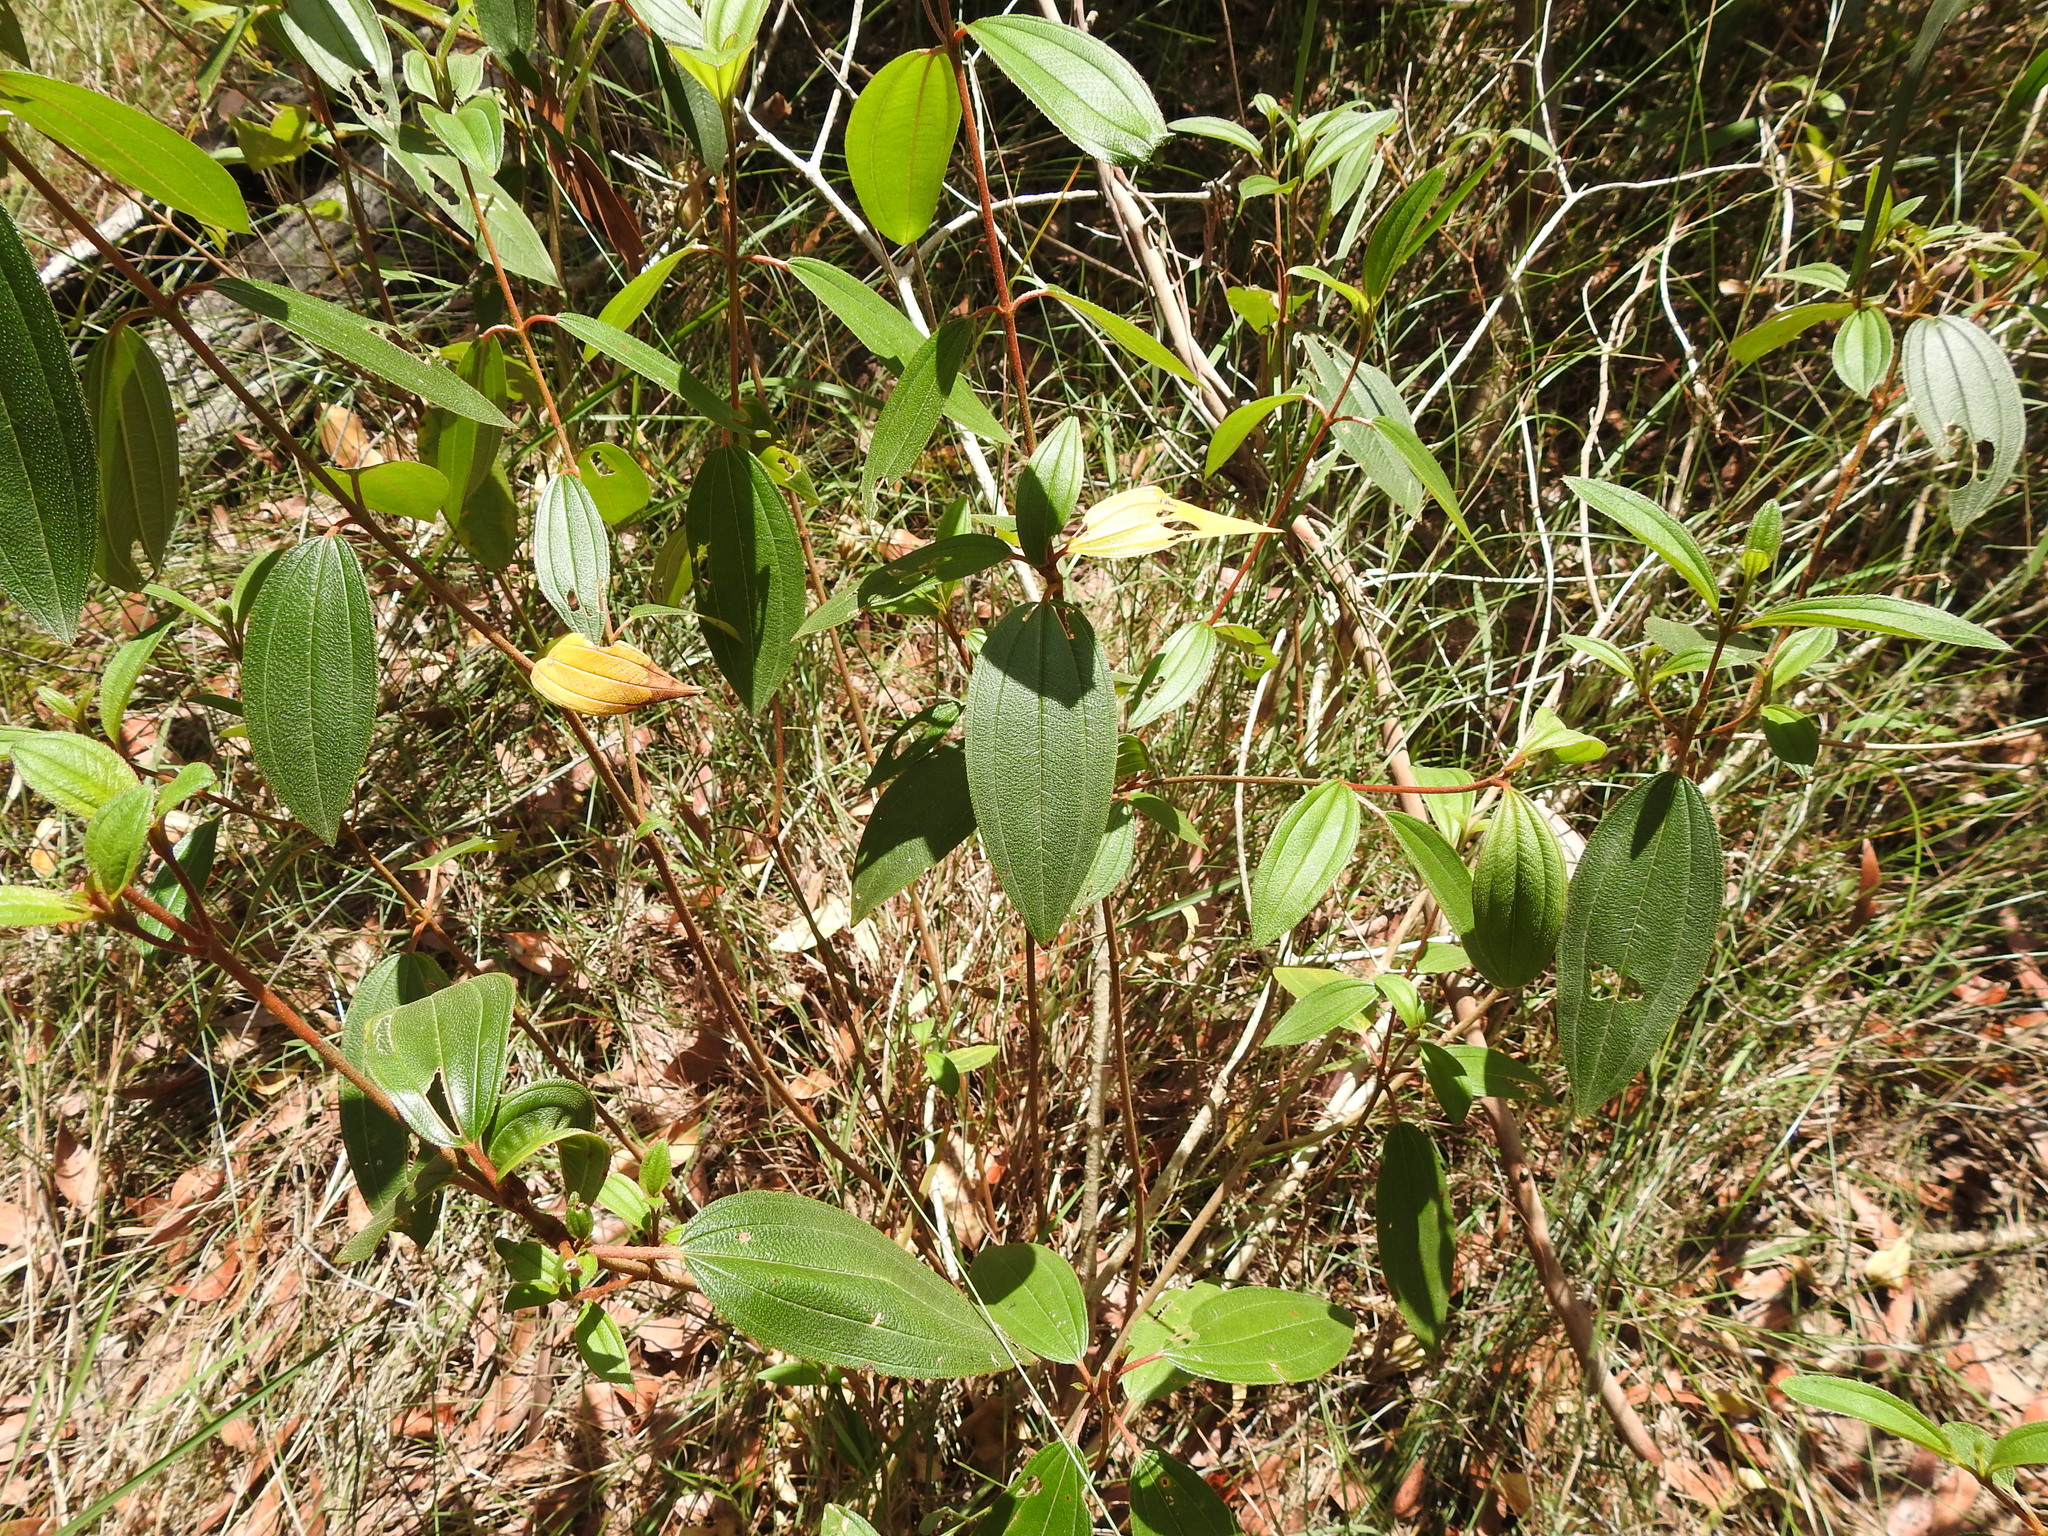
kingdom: Plantae
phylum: Tracheophyta
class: Magnoliopsida
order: Myrtales
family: Melastomataceae
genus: Melastoma
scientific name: Melastoma malabathricum
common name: Indian-rhododendron
